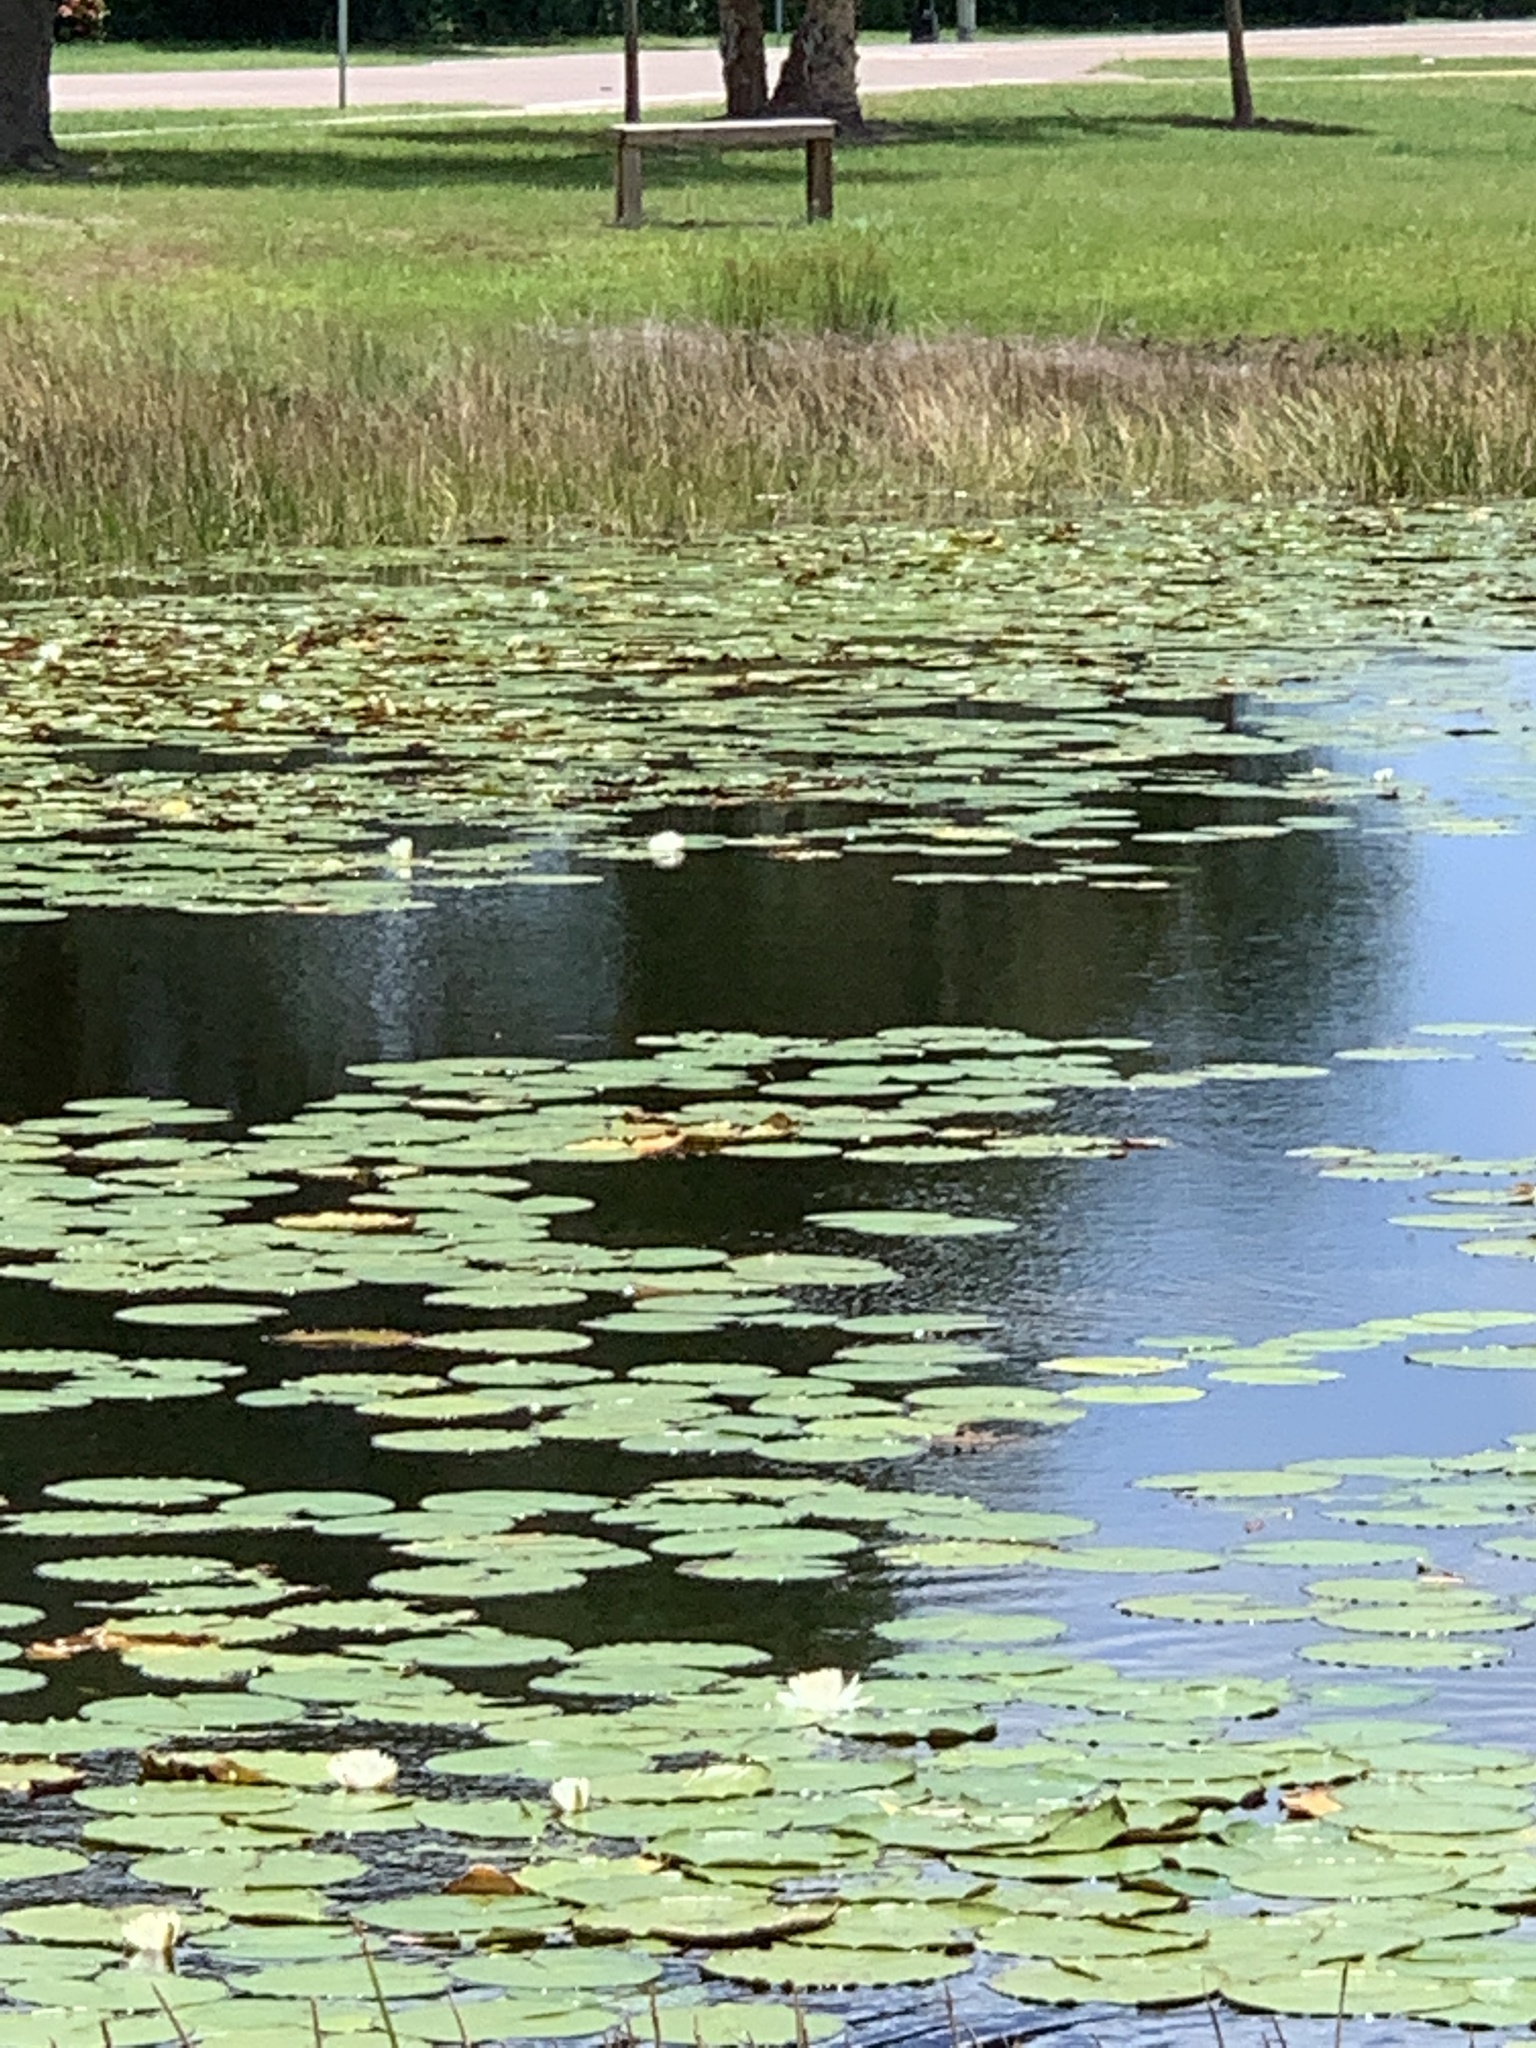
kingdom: Plantae
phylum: Tracheophyta
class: Magnoliopsida
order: Nymphaeales
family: Nymphaeaceae
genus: Nymphaea
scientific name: Nymphaea odorata
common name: Fragrant water-lily
